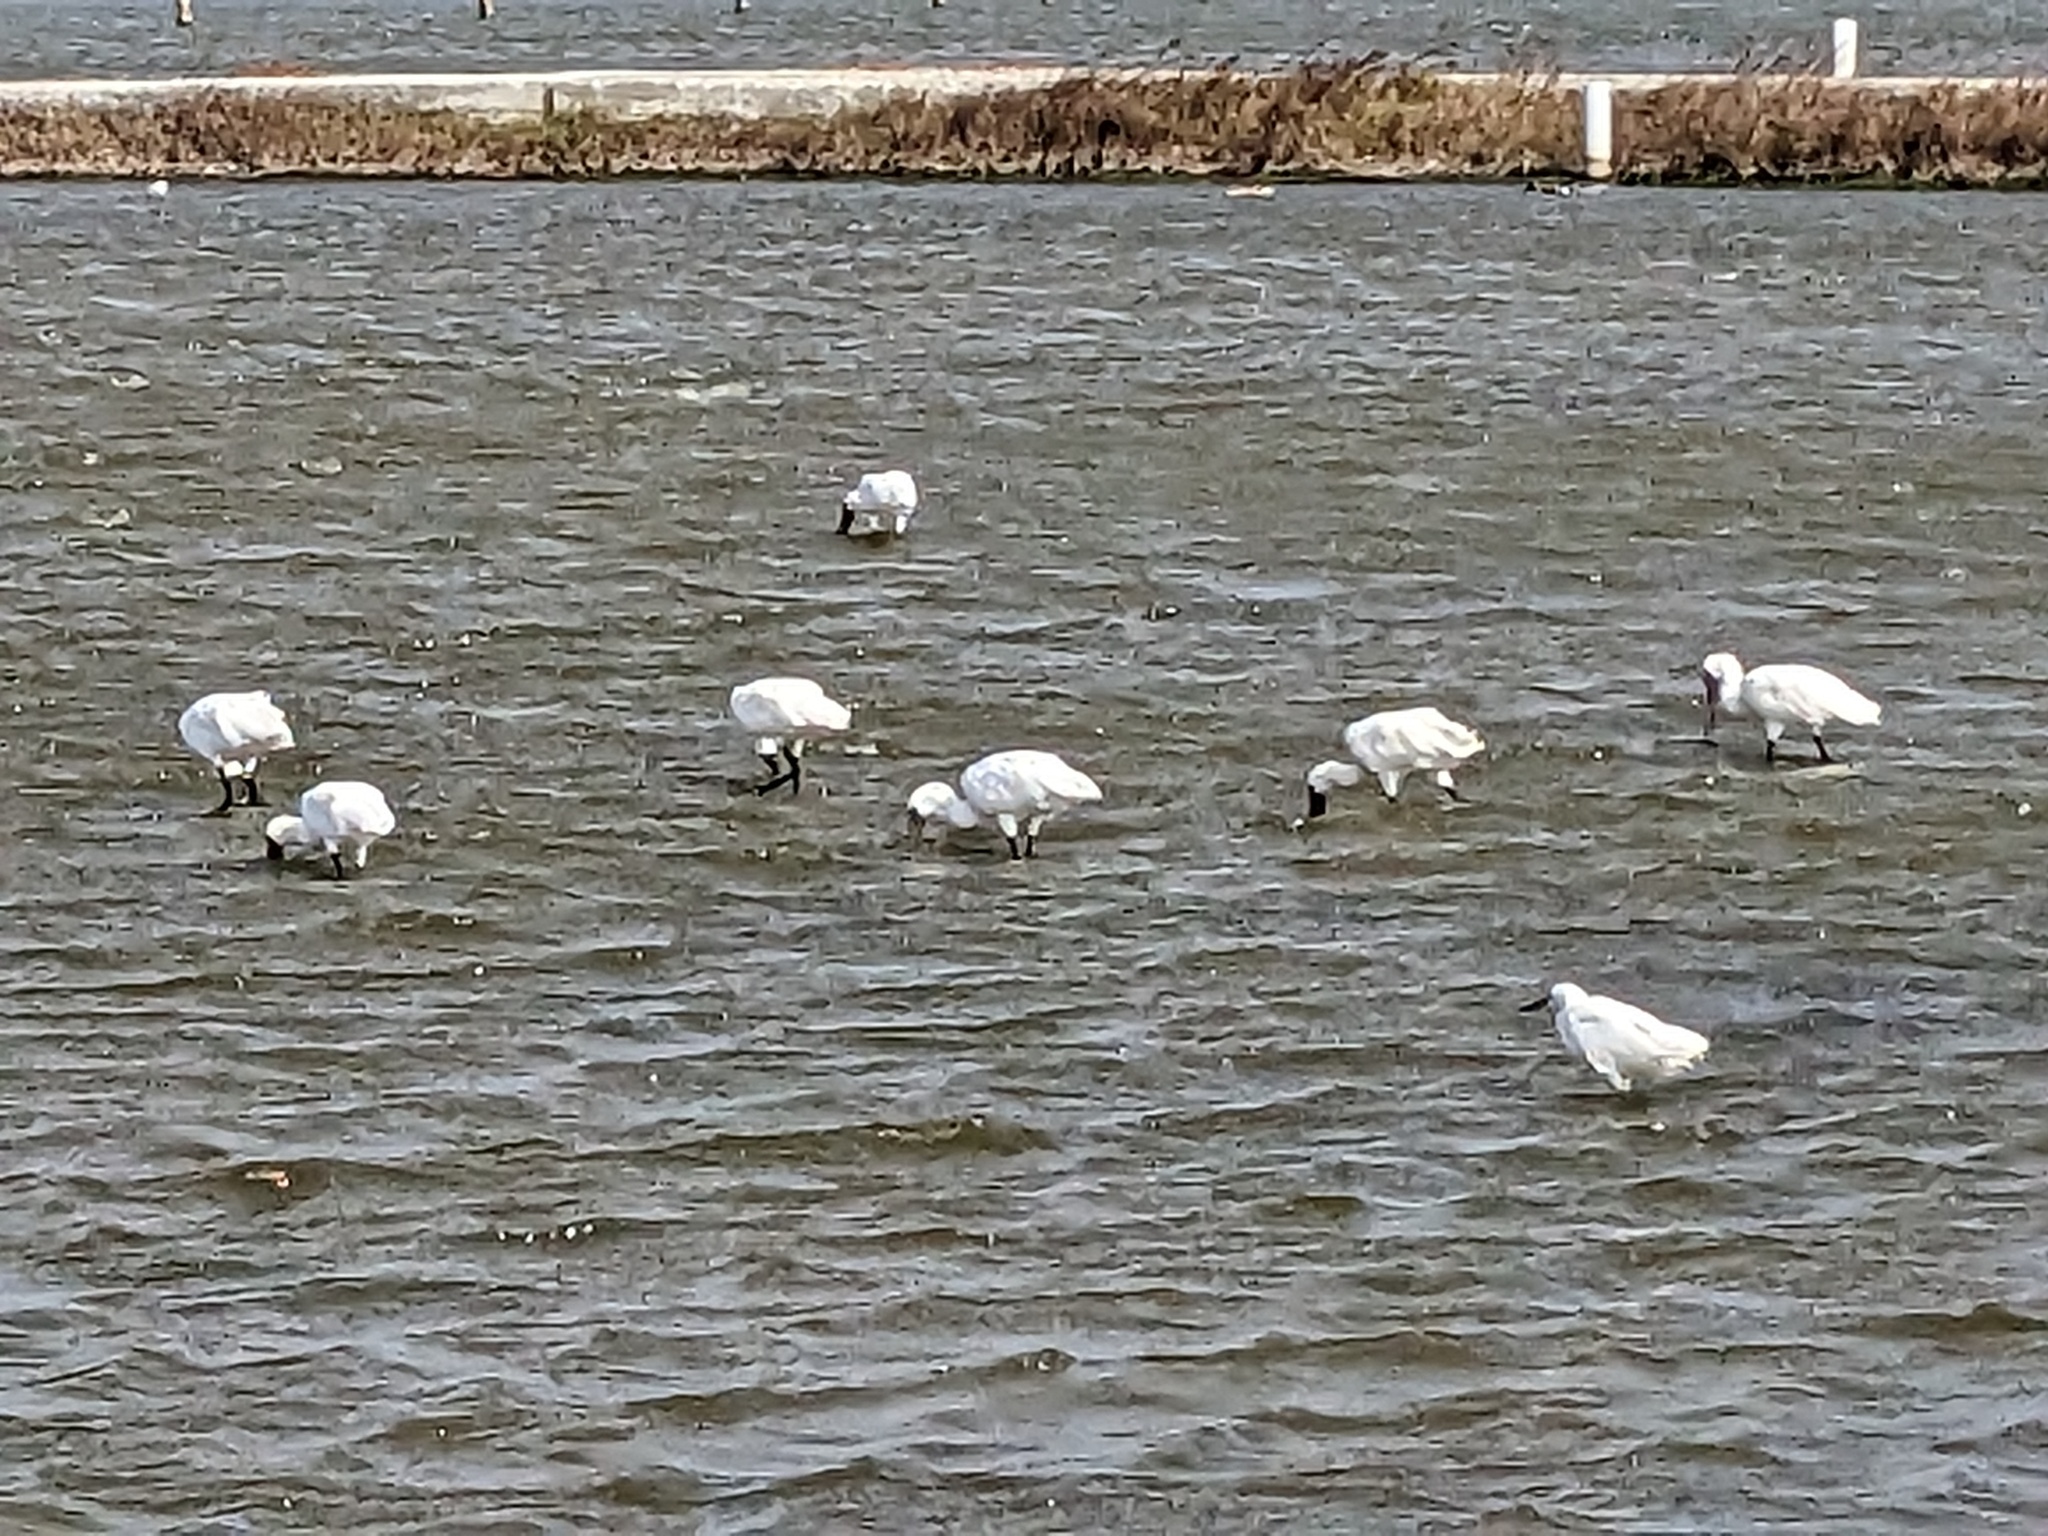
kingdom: Animalia
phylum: Chordata
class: Aves
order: Pelecaniformes
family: Threskiornithidae
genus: Platalea
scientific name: Platalea minor
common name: Black-faced spoonbill
